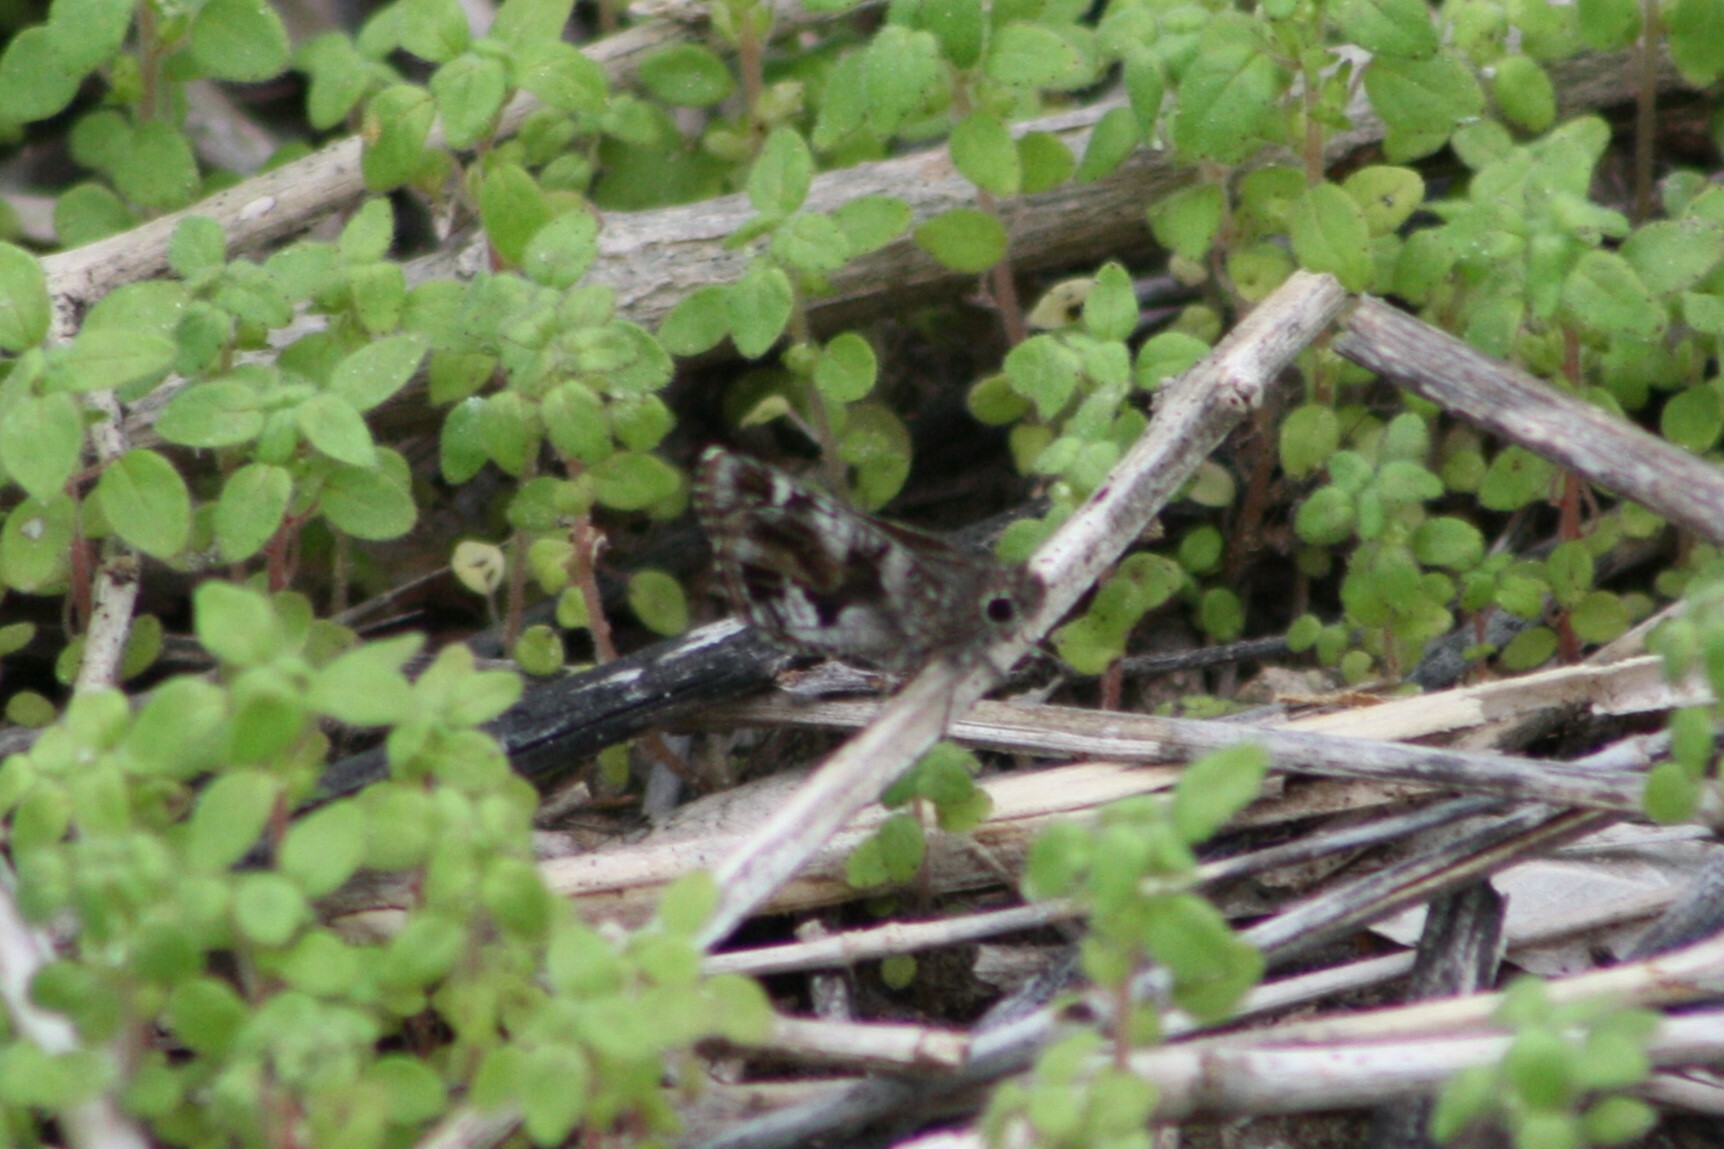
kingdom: Animalia
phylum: Arthropoda
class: Insecta
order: Lepidoptera
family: Hesperiidae
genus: Mastor
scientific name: Mastor nysa
